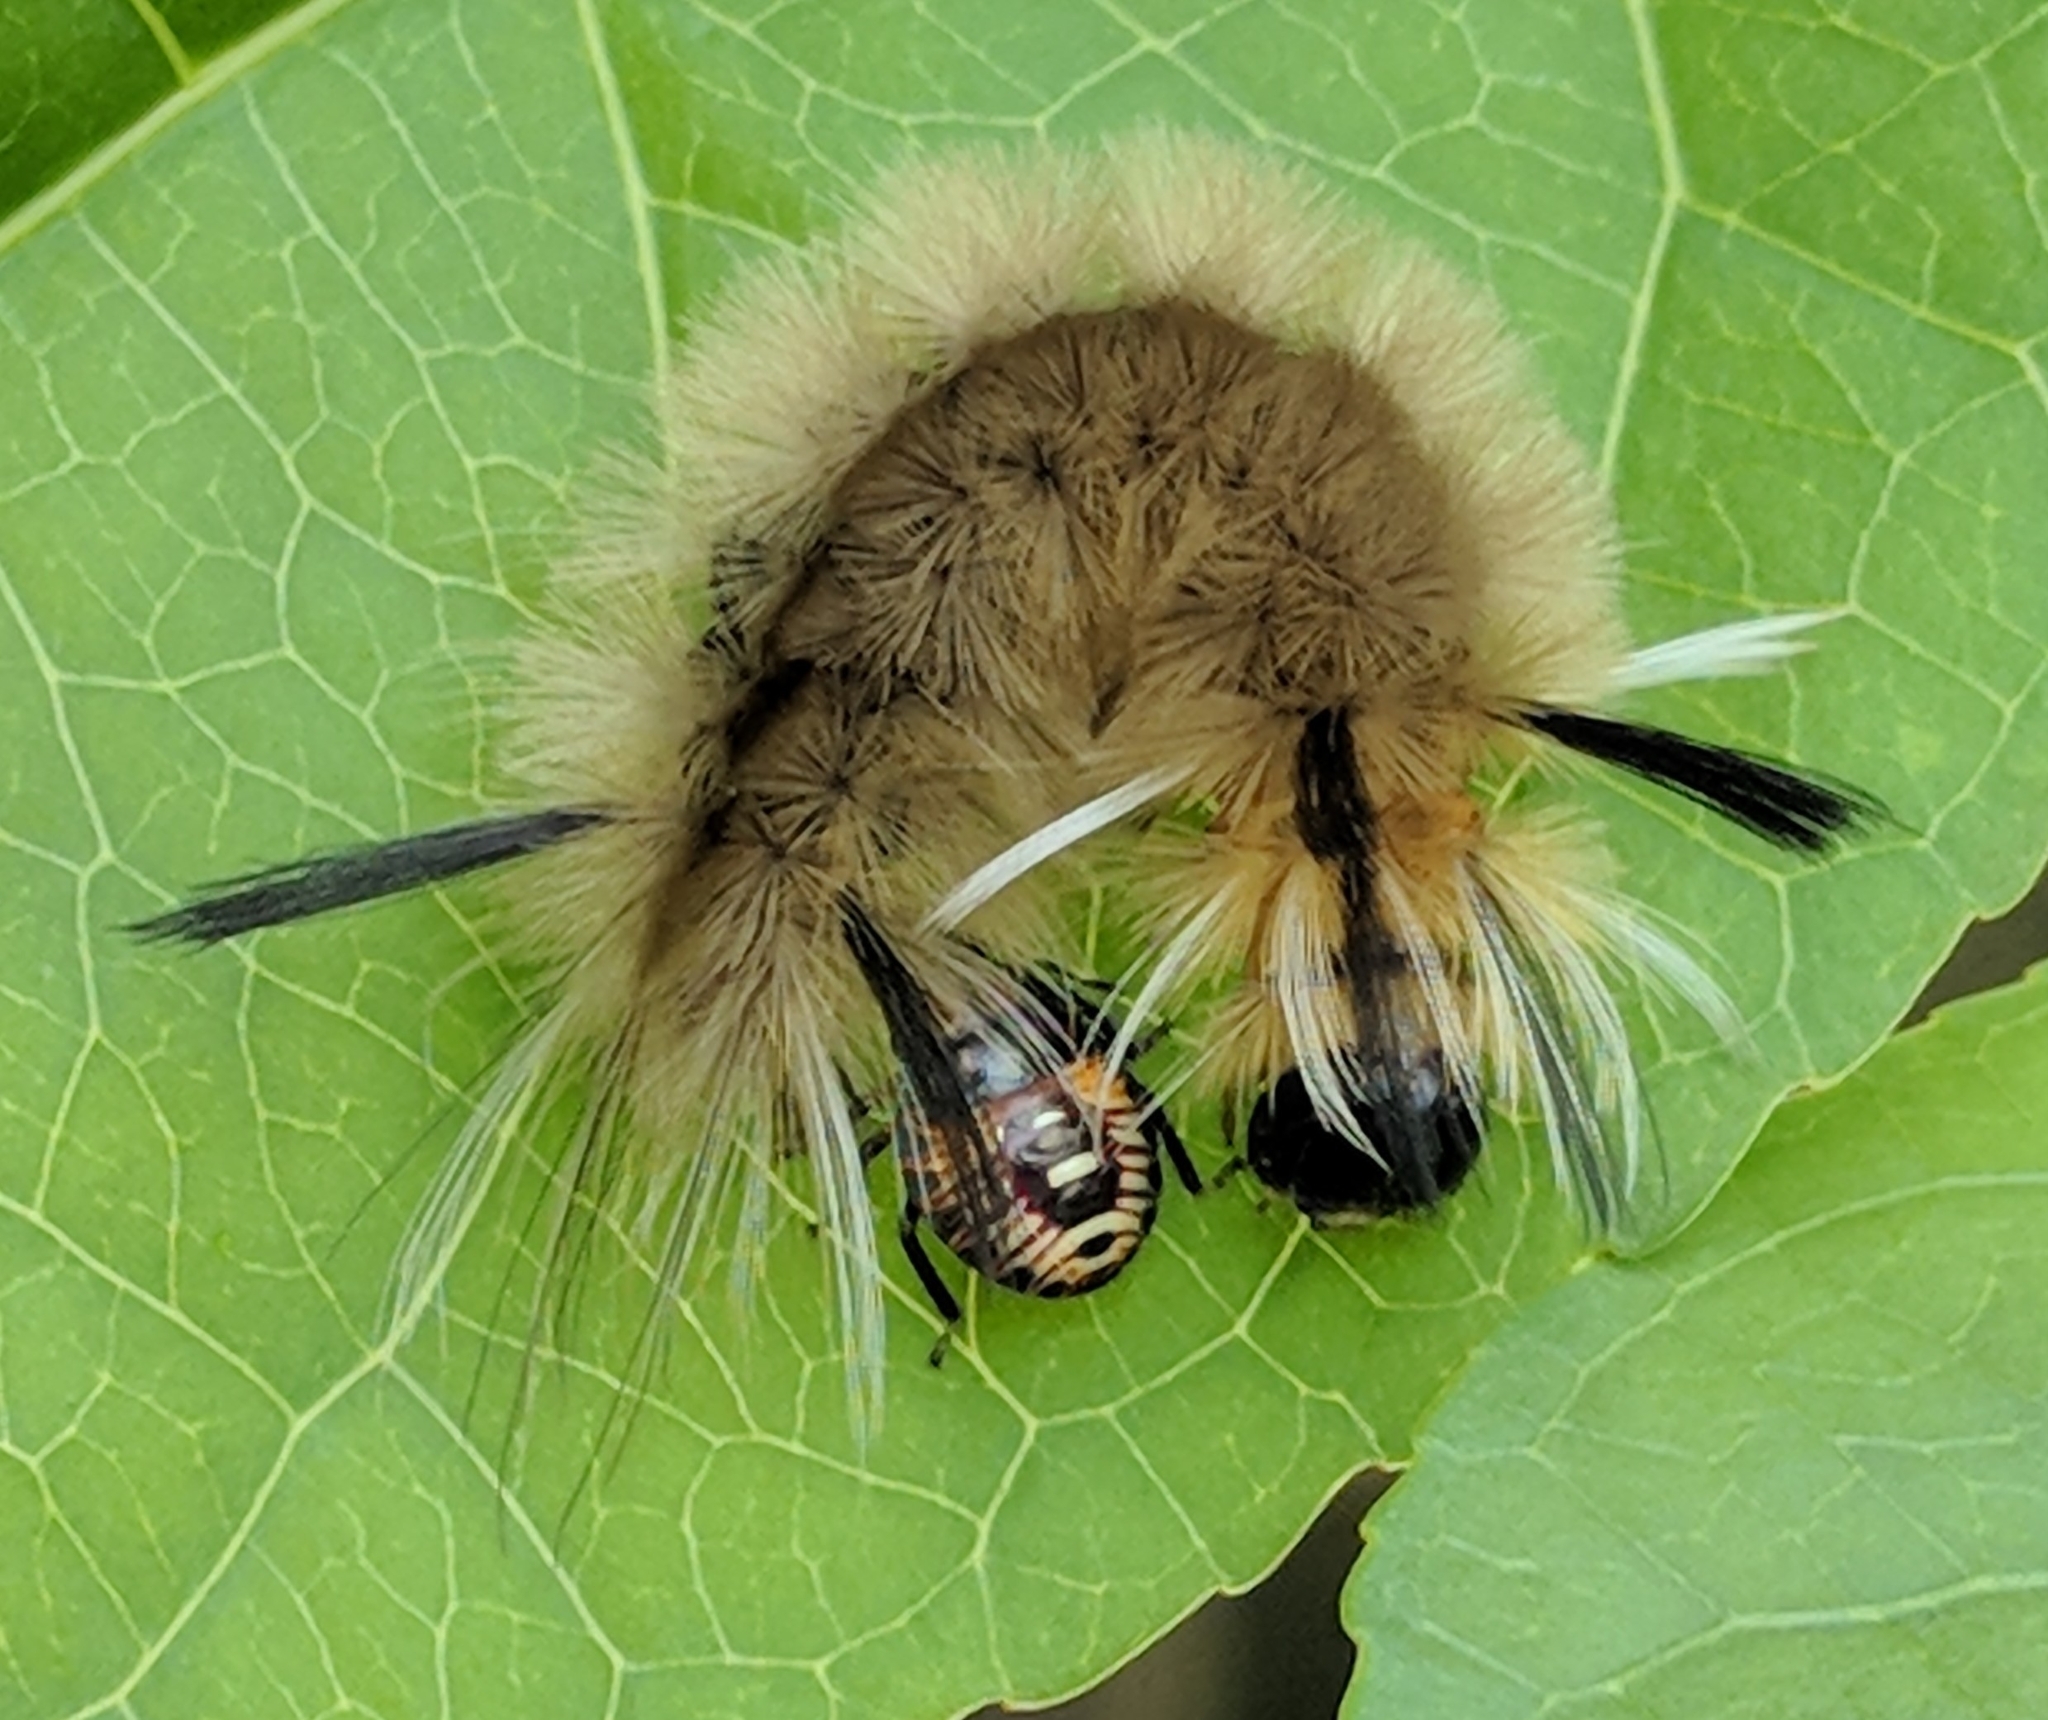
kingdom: Animalia
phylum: Arthropoda
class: Insecta
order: Lepidoptera
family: Erebidae
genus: Halysidota
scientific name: Halysidota tessellaris
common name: Banded tussock moth
